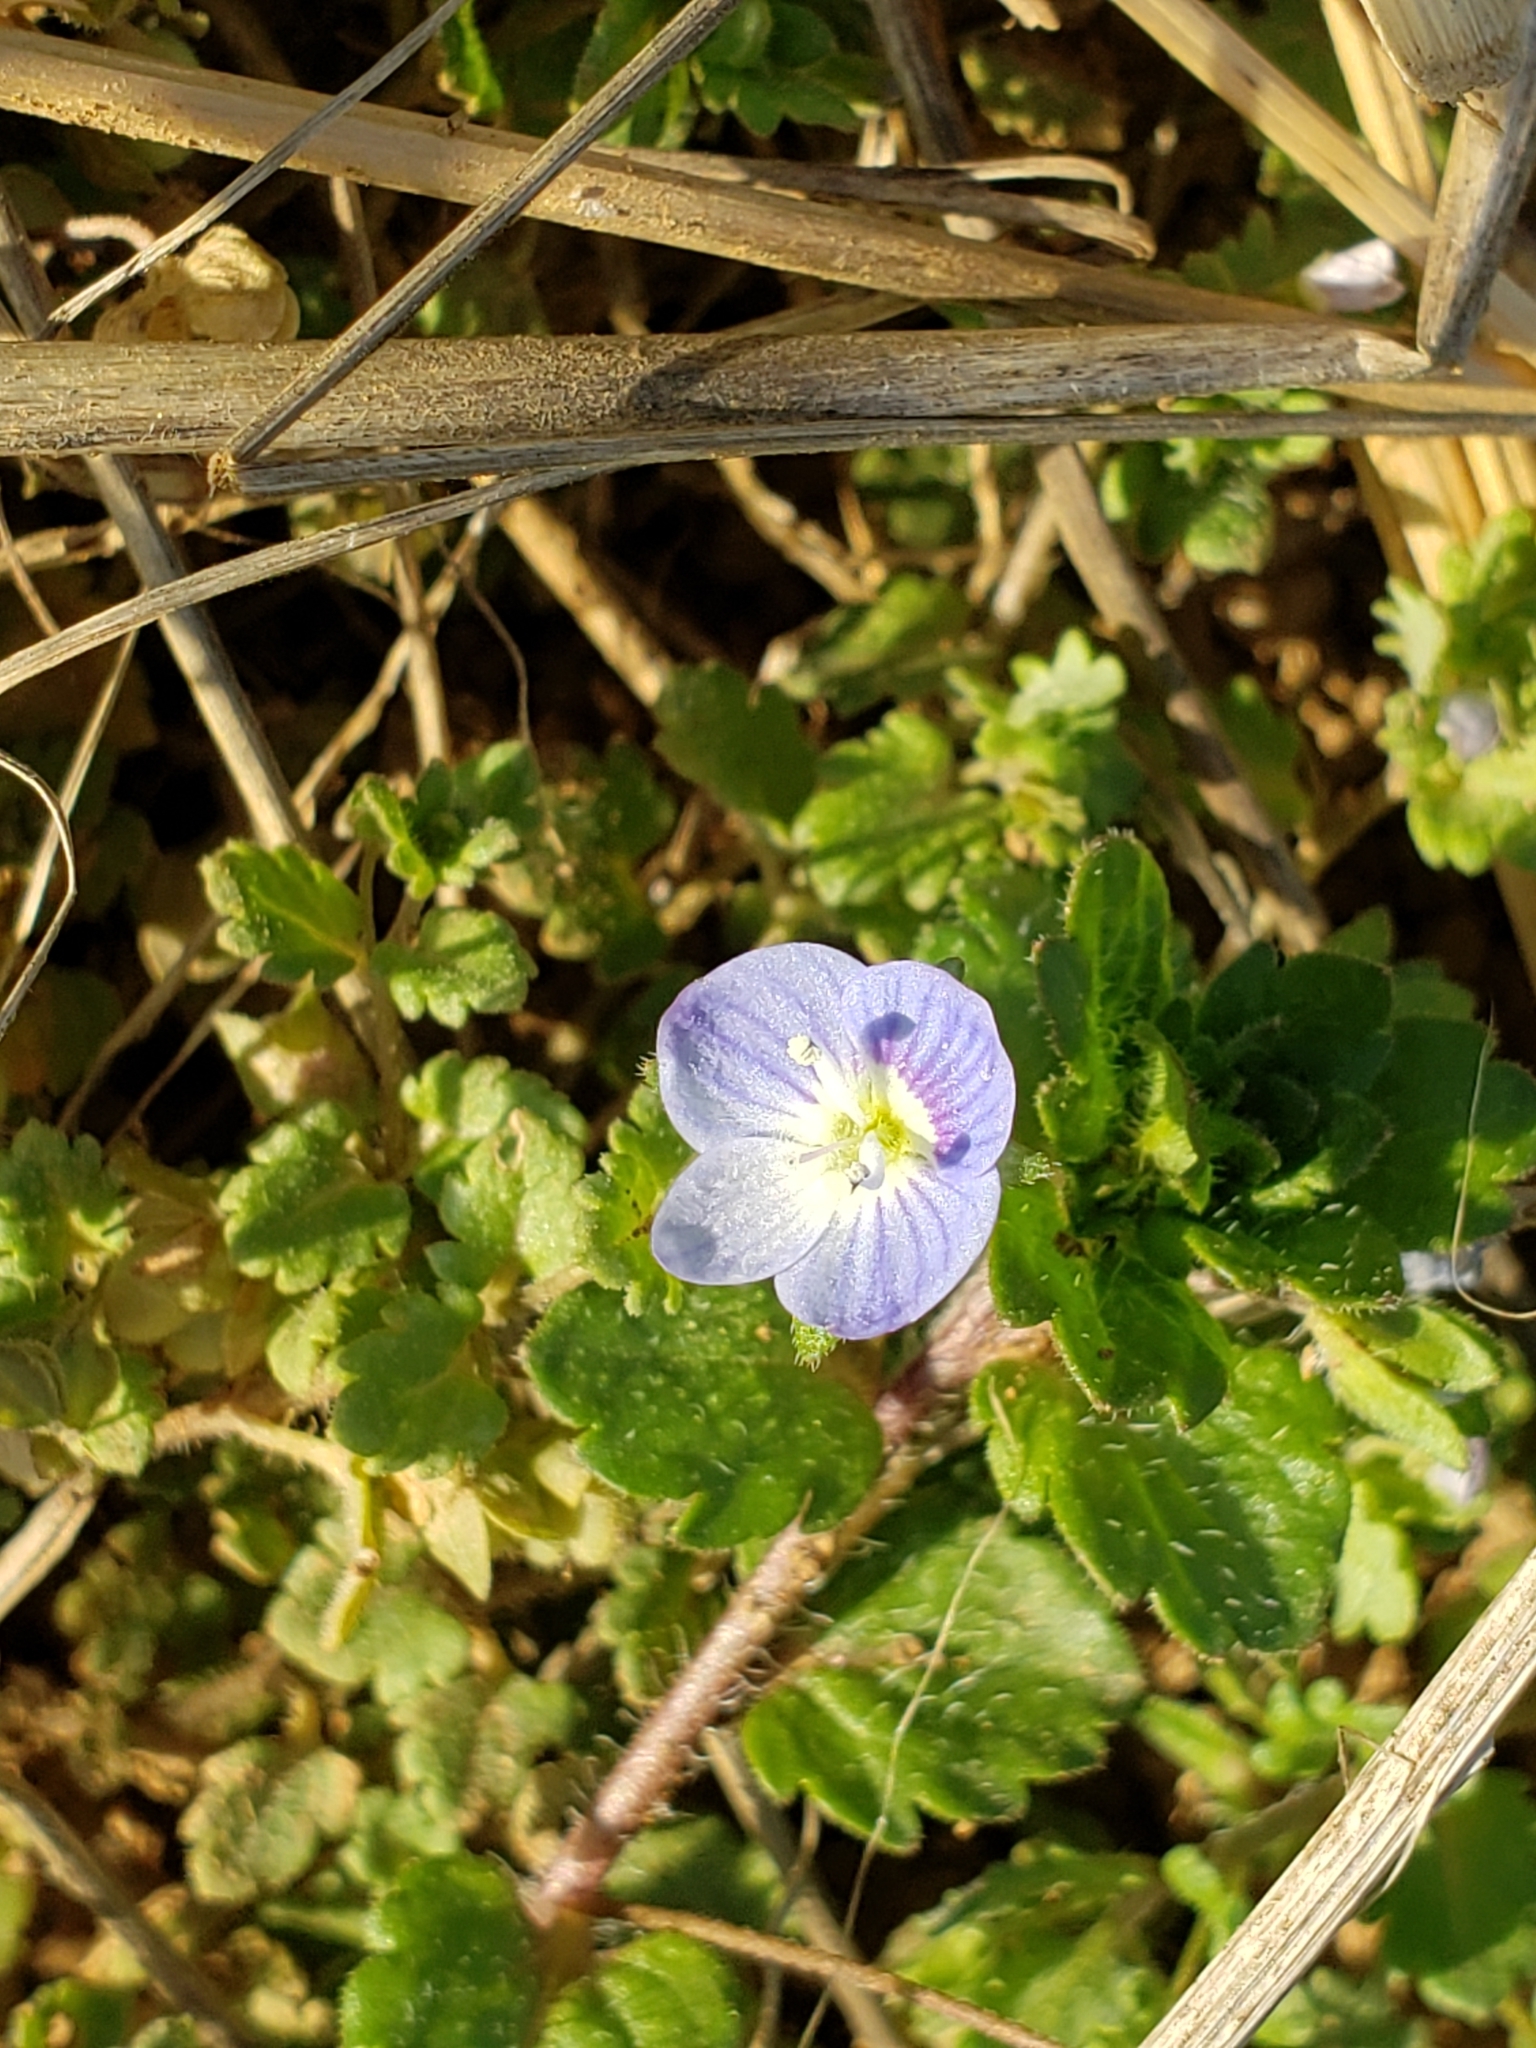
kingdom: Plantae
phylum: Tracheophyta
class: Magnoliopsida
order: Lamiales
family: Plantaginaceae
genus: Veronica
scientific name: Veronica persica
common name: Common field-speedwell
